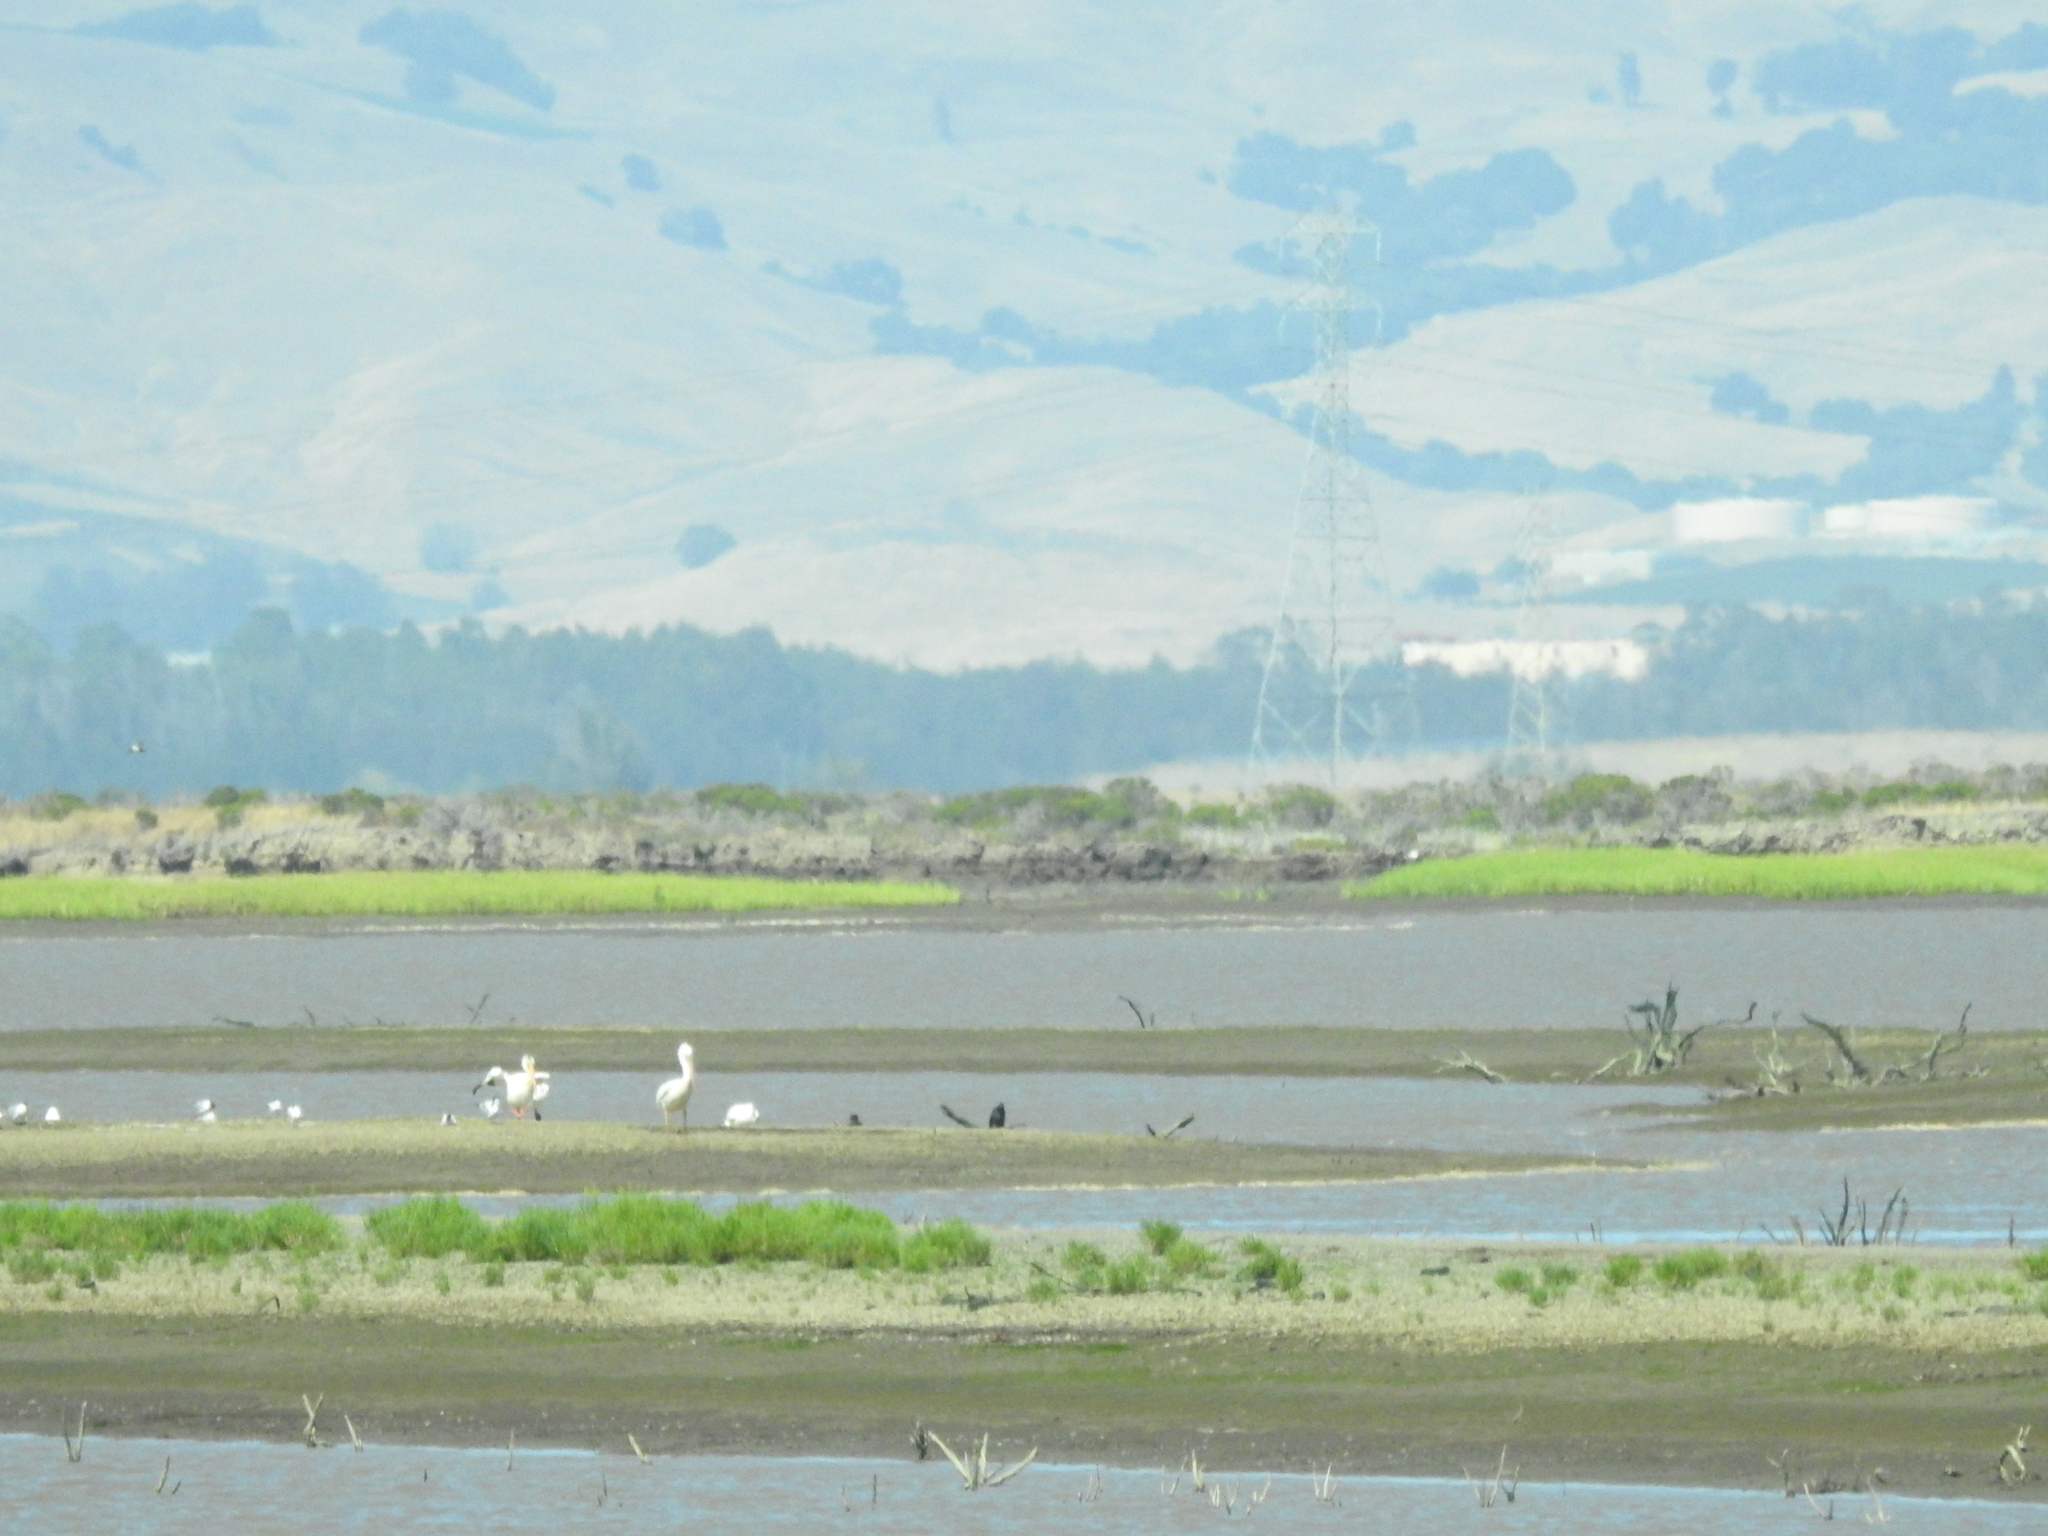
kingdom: Animalia
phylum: Chordata
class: Aves
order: Pelecaniformes
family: Pelecanidae
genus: Pelecanus
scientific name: Pelecanus erythrorhynchos
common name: American white pelican
